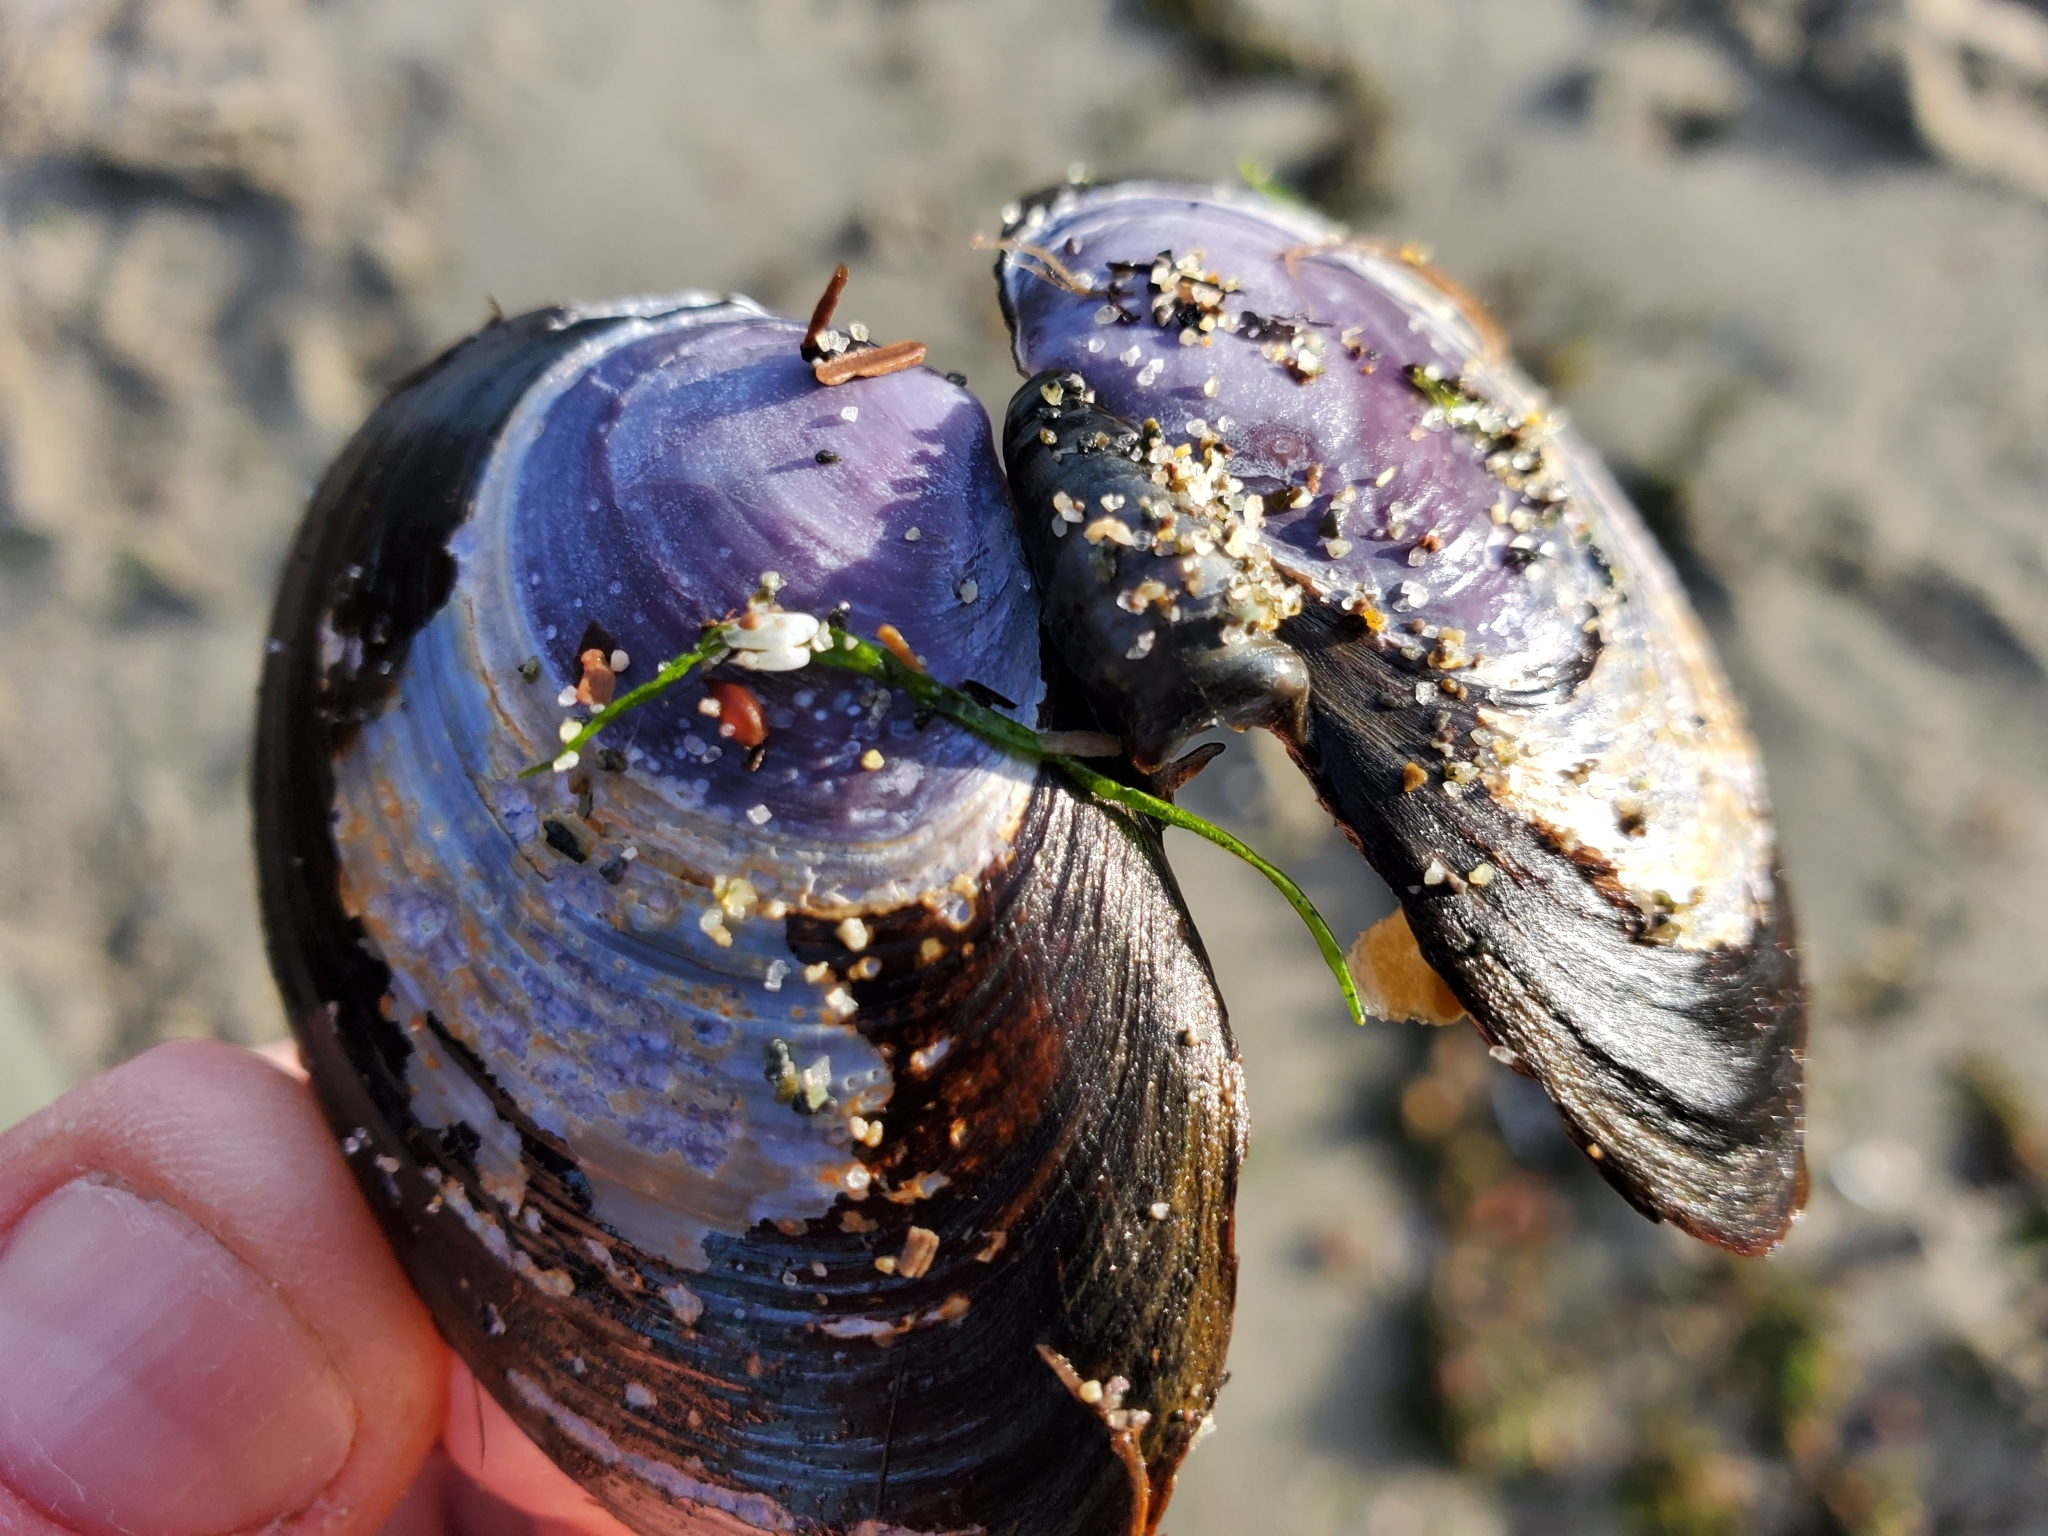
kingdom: Animalia
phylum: Mollusca
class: Bivalvia
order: Cardiida
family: Psammobiidae
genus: Nuttallia
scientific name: Nuttallia obscurata
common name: Purple mahogany-clam
